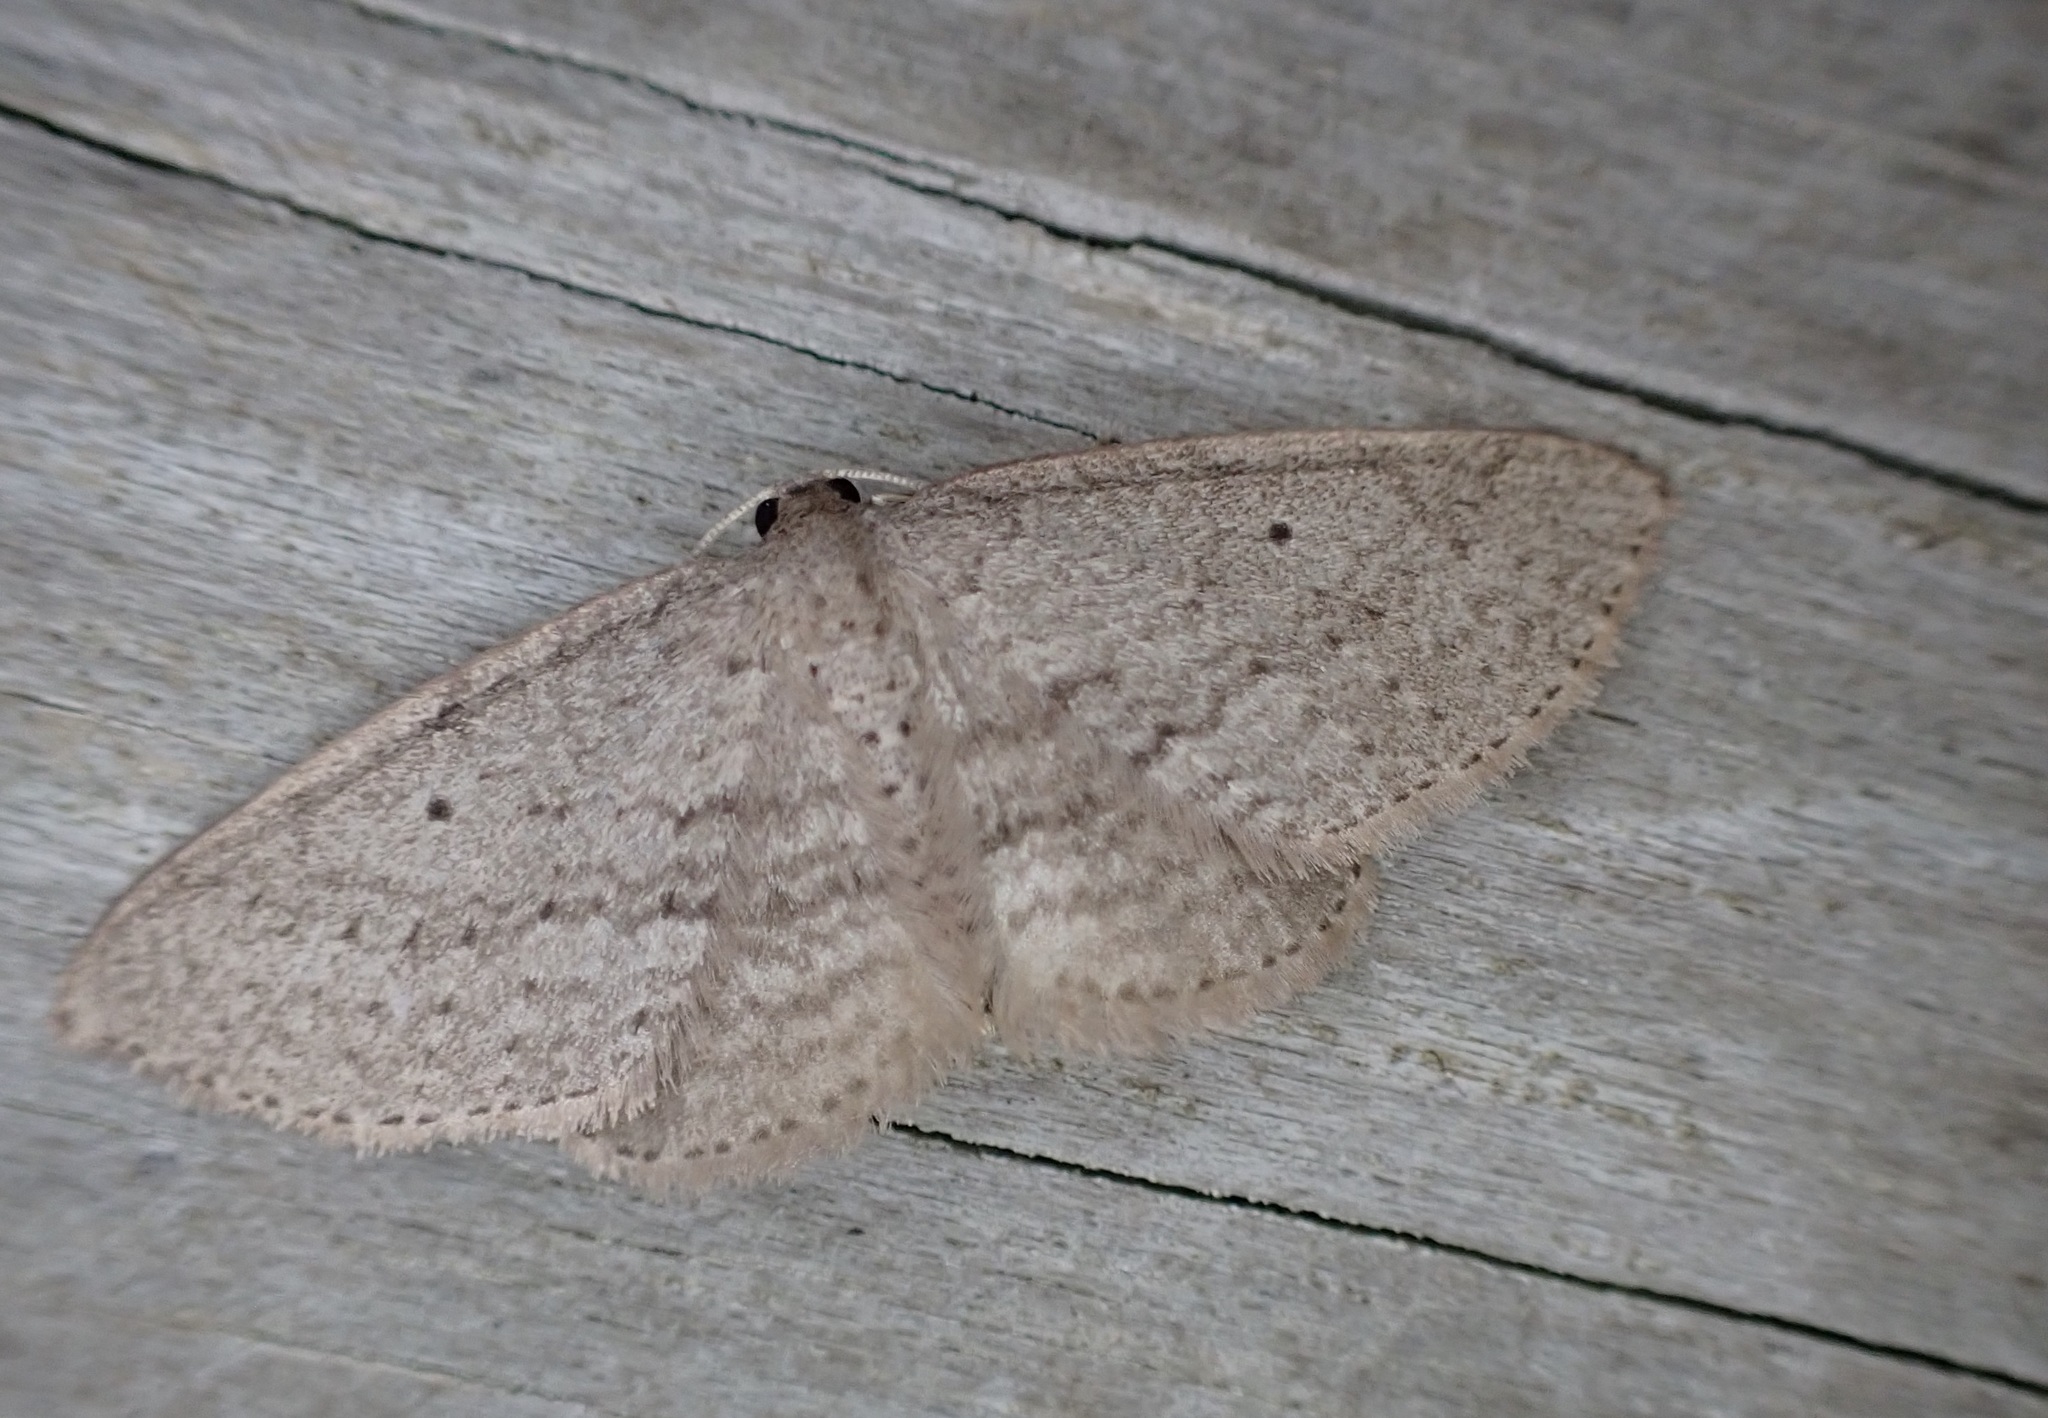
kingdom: Animalia
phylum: Arthropoda
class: Insecta
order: Lepidoptera
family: Geometridae
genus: Poecilasthena
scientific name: Poecilasthena schistaria
